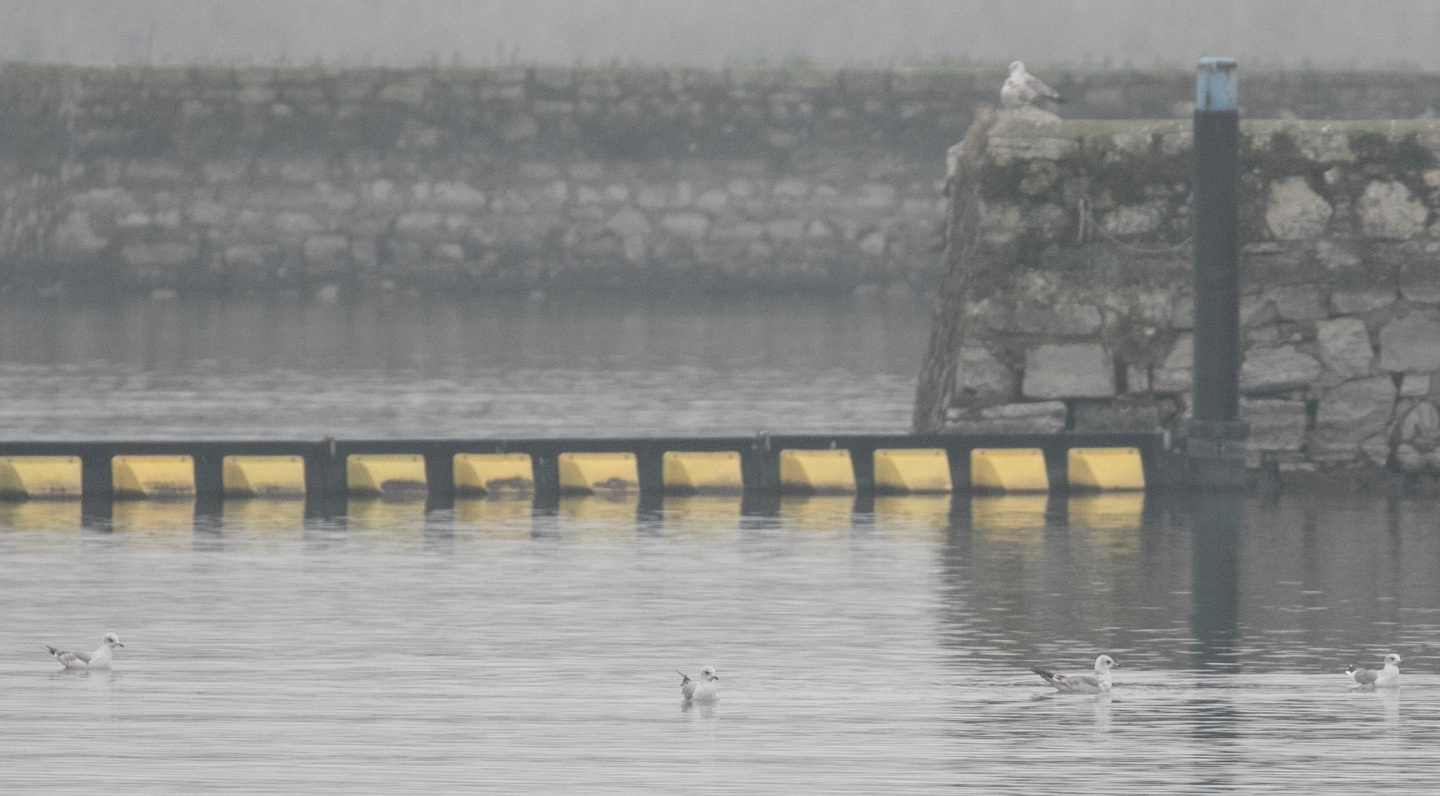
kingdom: Animalia
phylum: Chordata
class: Aves
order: Charadriiformes
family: Laridae
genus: Larus
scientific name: Larus canus
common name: Mew gull
